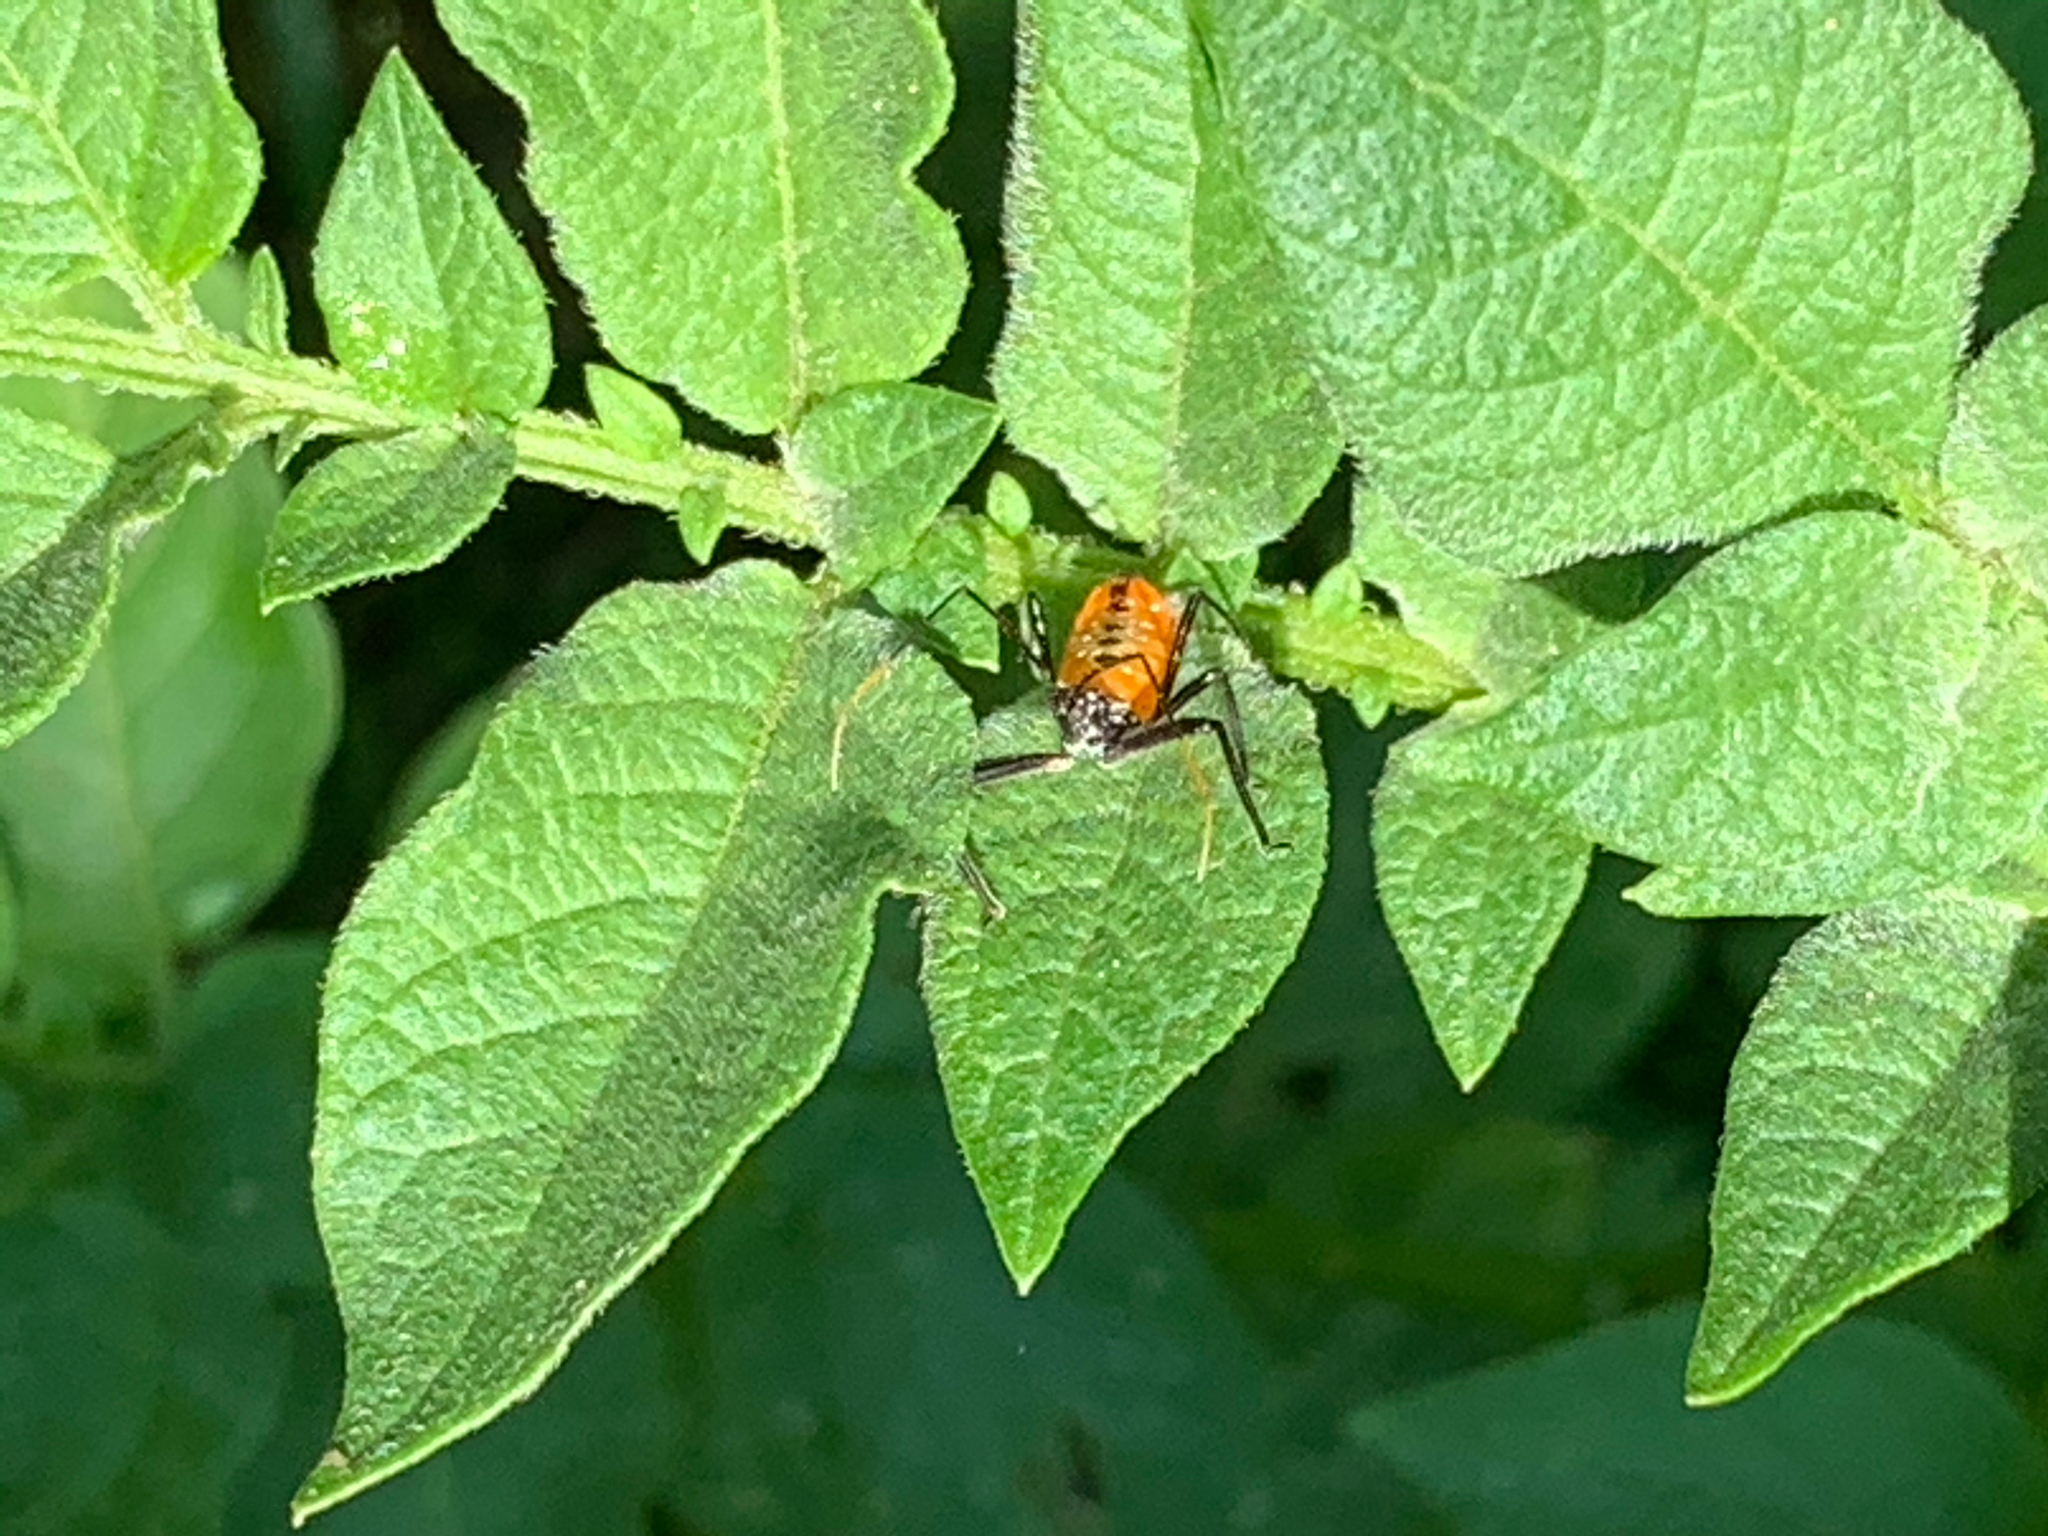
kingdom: Animalia
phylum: Arthropoda
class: Insecta
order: Hemiptera
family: Reduviidae
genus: Arilus
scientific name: Arilus cristatus
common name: North american wheel bug
